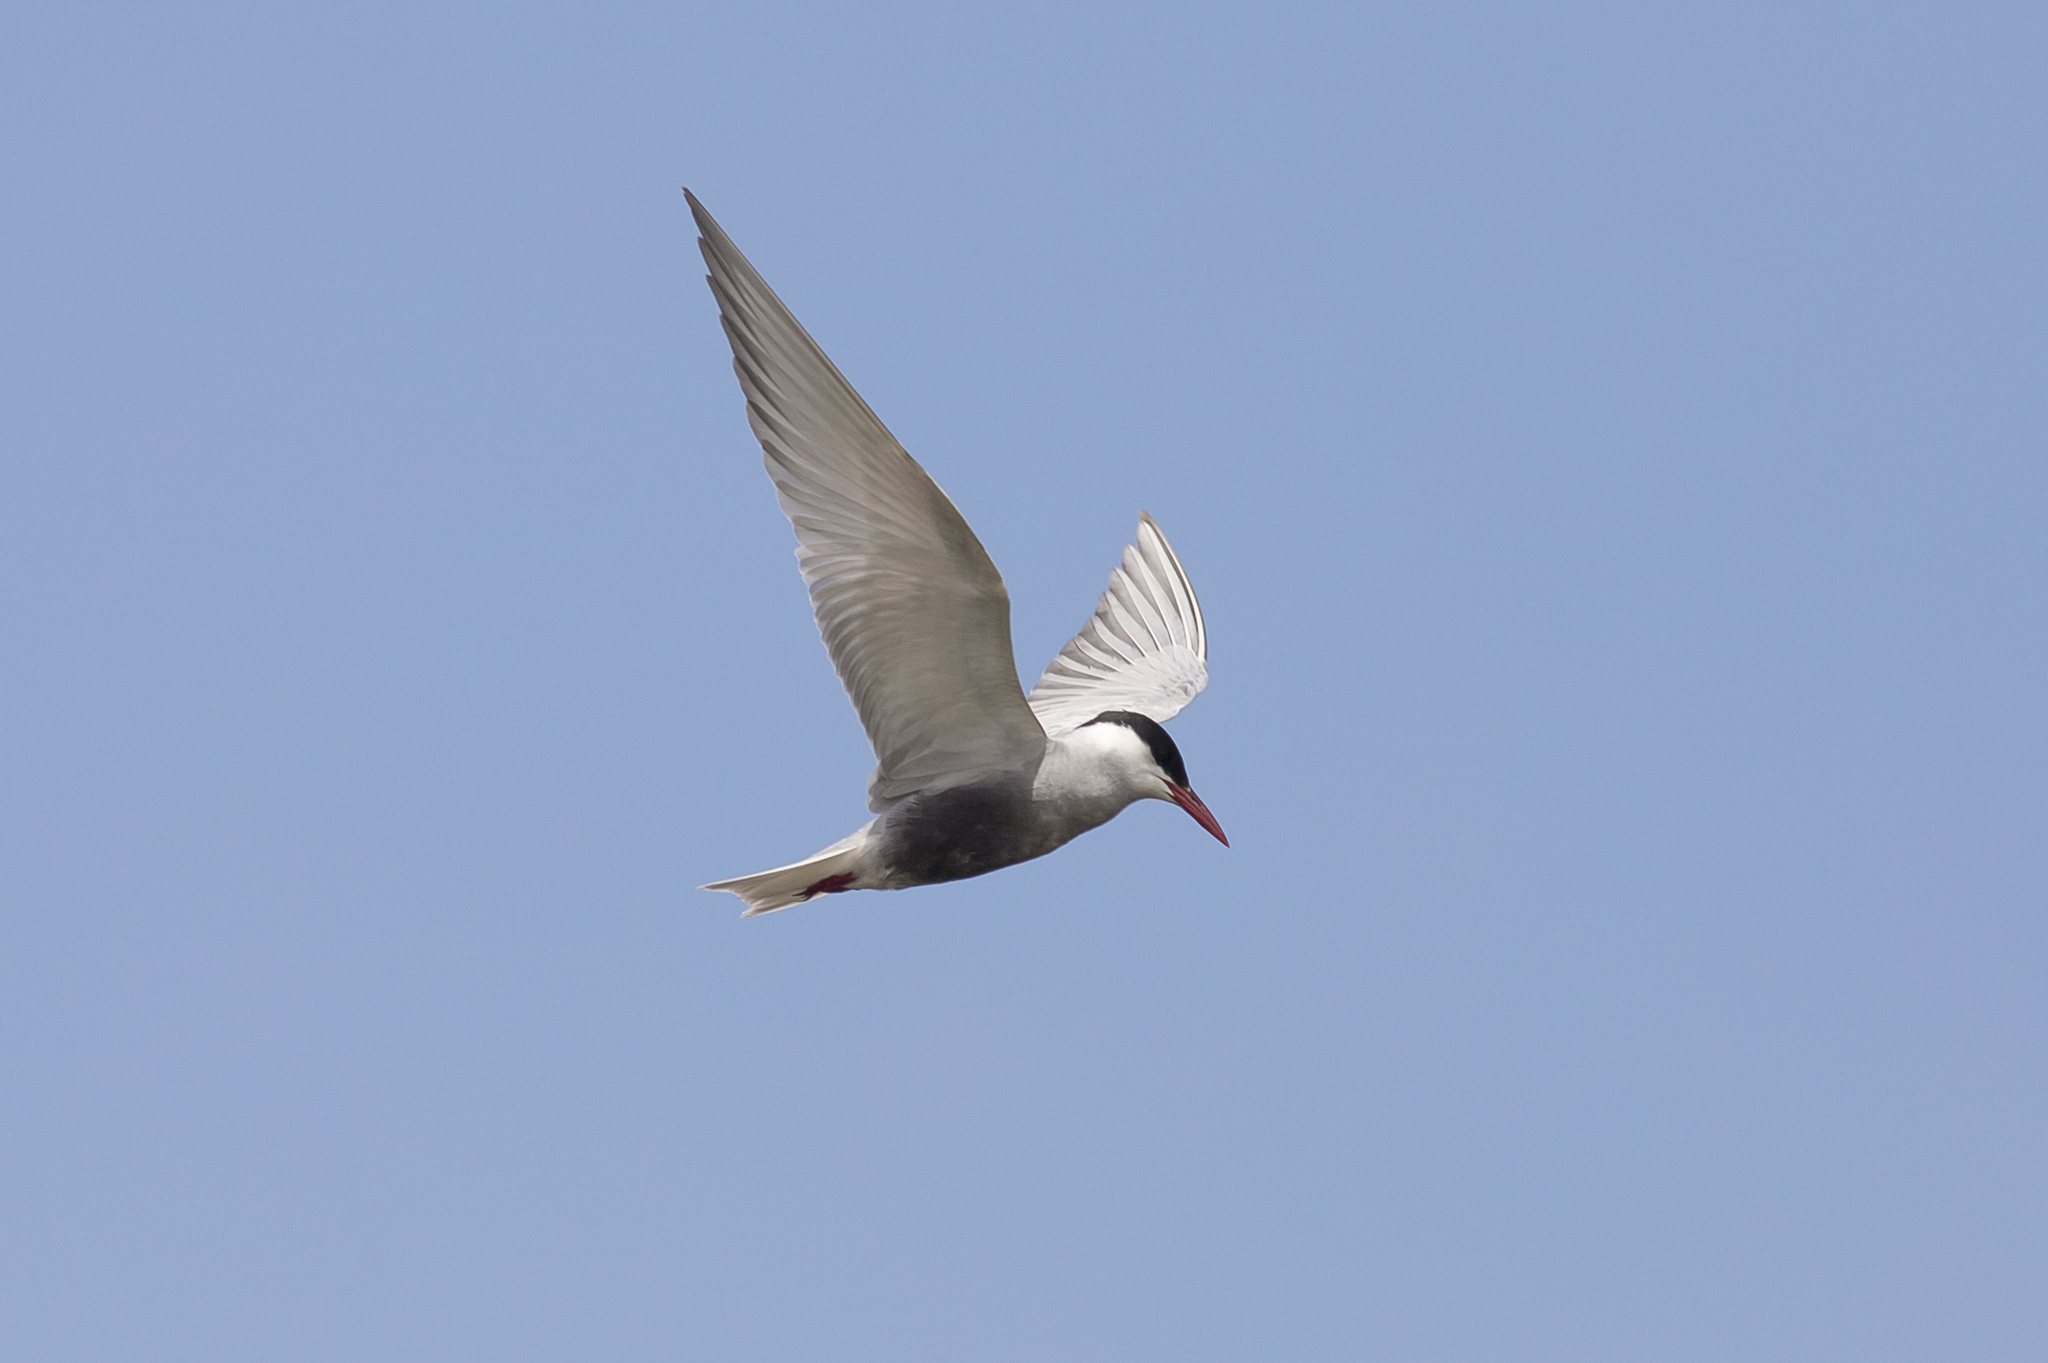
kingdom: Animalia
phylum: Chordata
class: Aves
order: Charadriiformes
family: Laridae
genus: Chlidonias
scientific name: Chlidonias hybrida
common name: Whiskered tern
